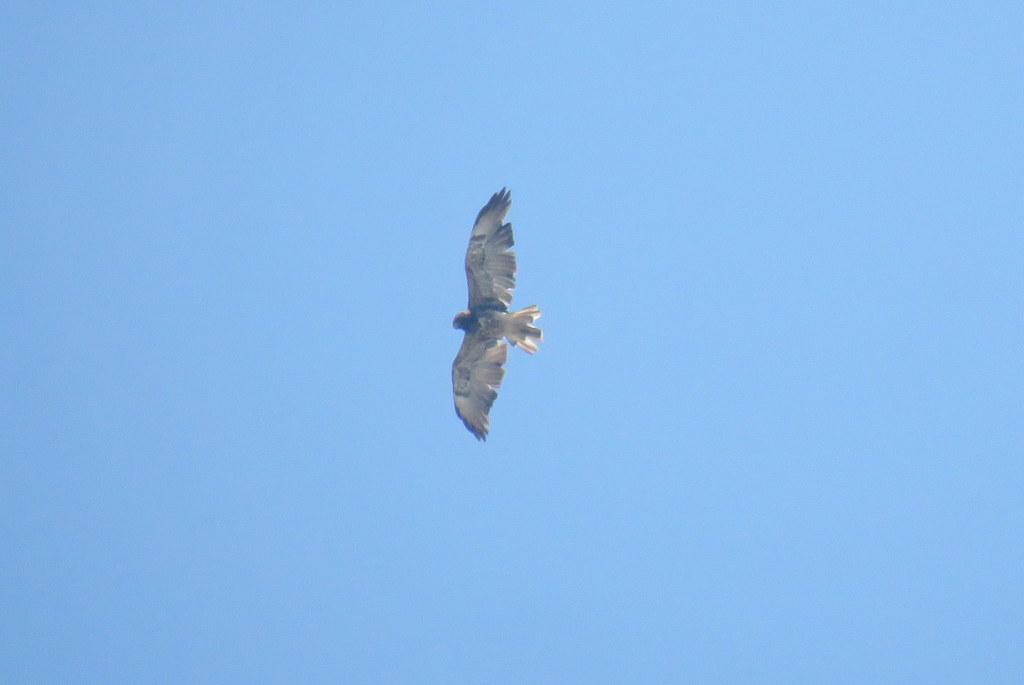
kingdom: Animalia
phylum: Chordata
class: Aves
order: Accipitriformes
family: Accipitridae
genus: Buteo
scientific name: Buteo albicaudatus
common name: White-tailed hawk
